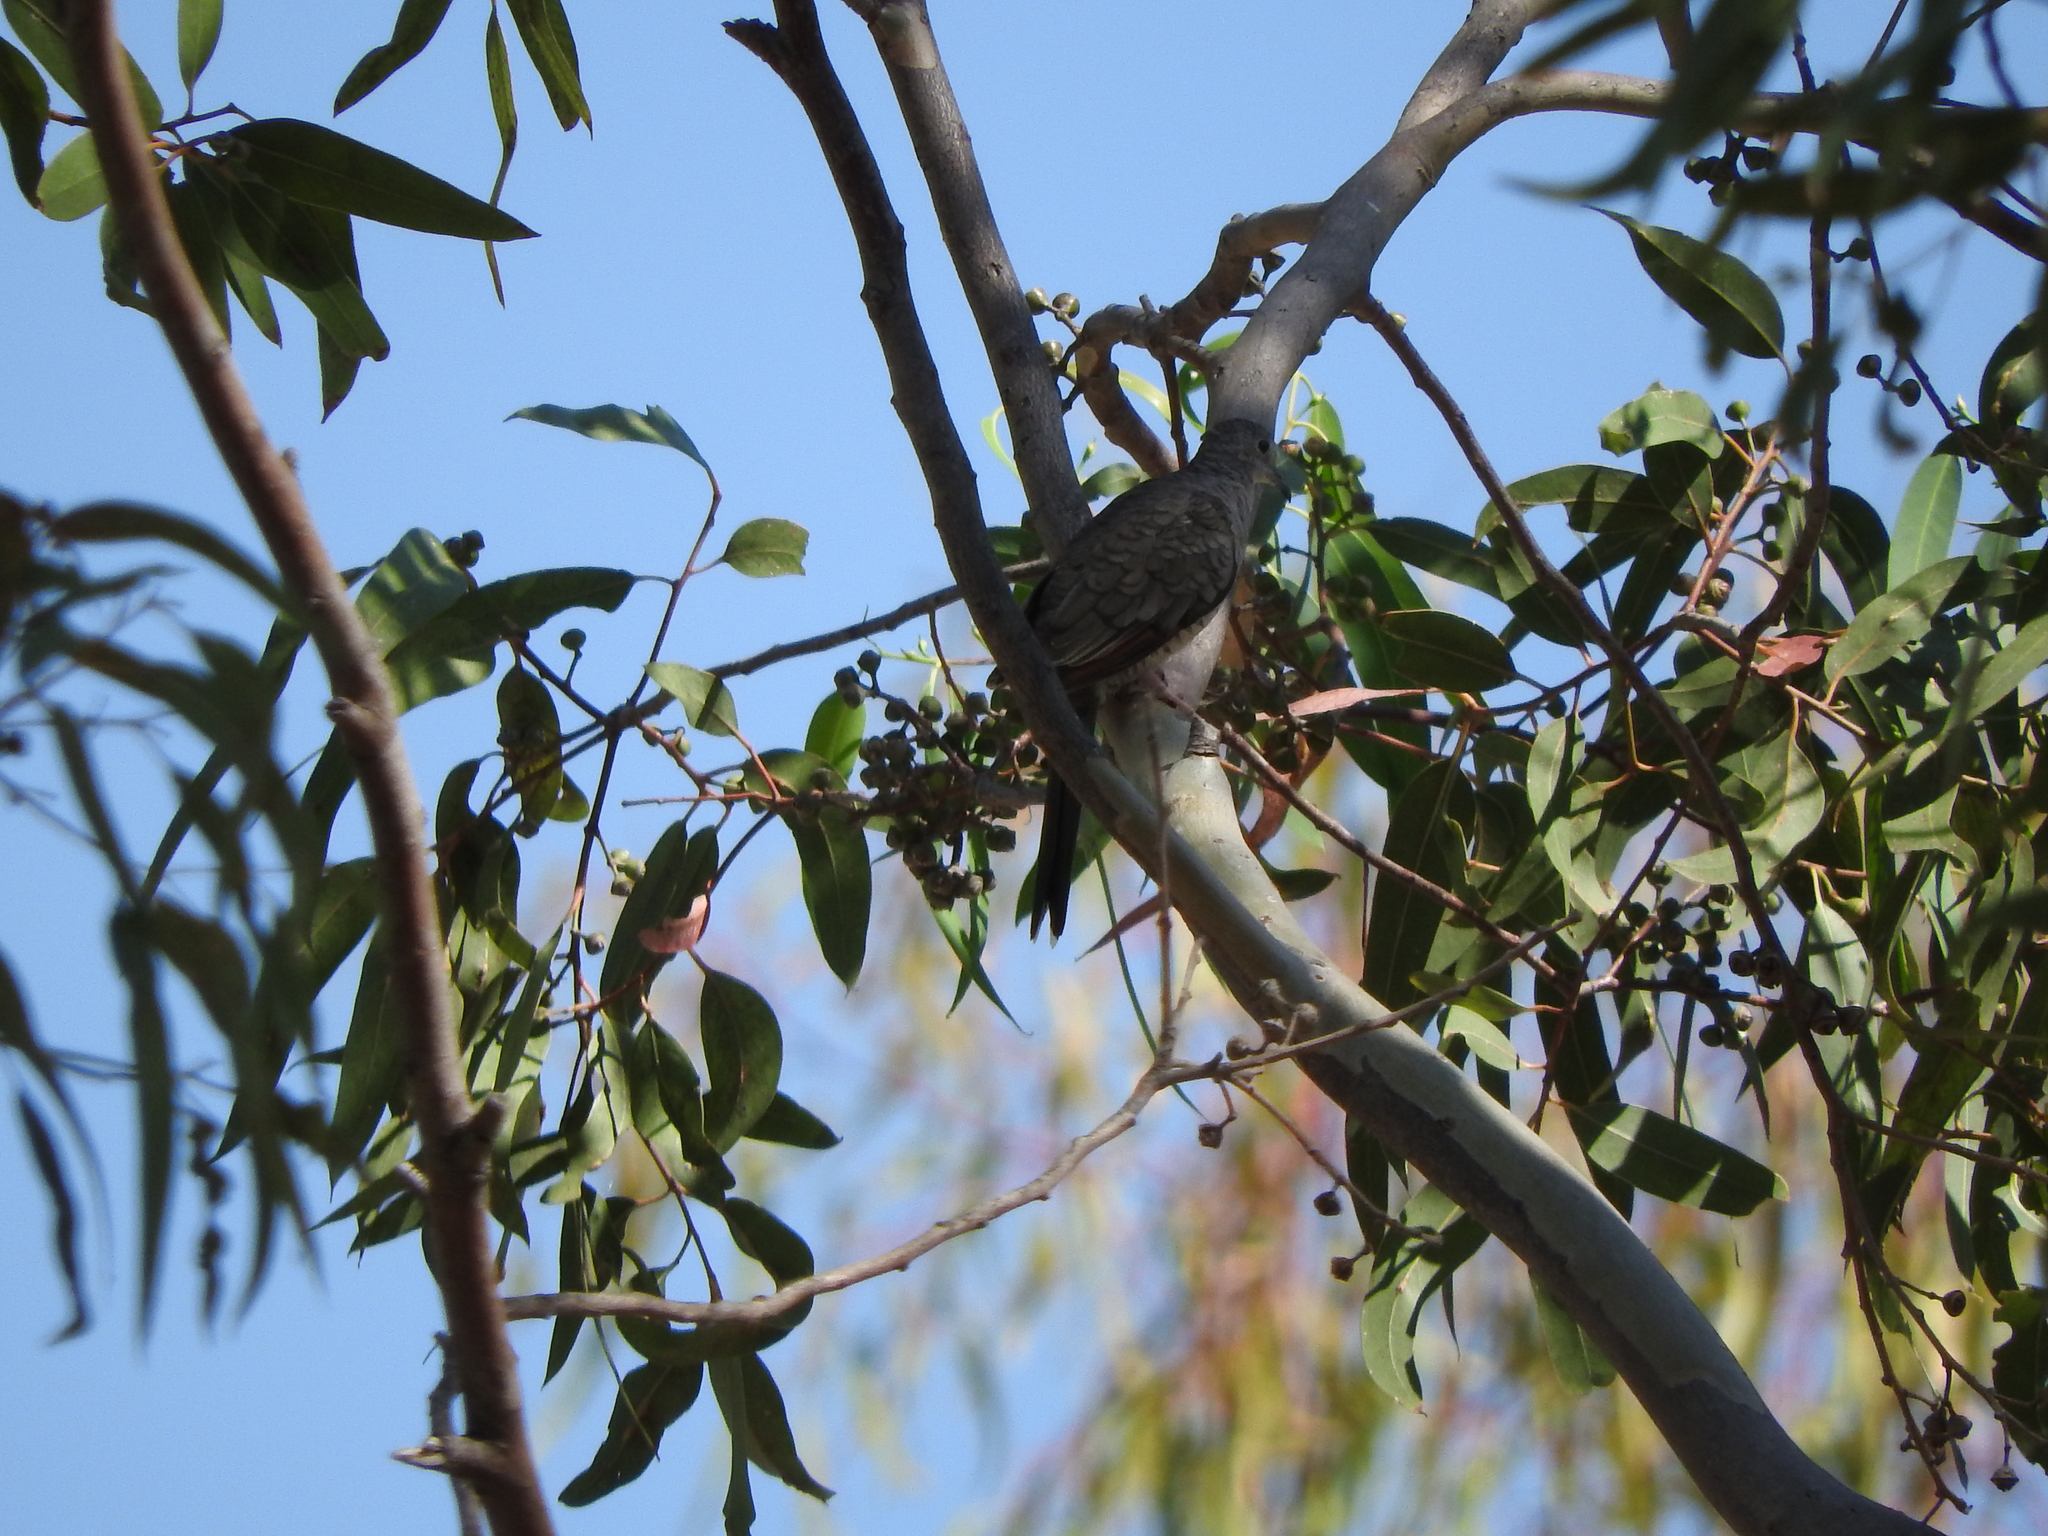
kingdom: Animalia
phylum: Chordata
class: Aves
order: Columbiformes
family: Columbidae
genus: Columbina
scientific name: Columbina inca
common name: Inca dove
